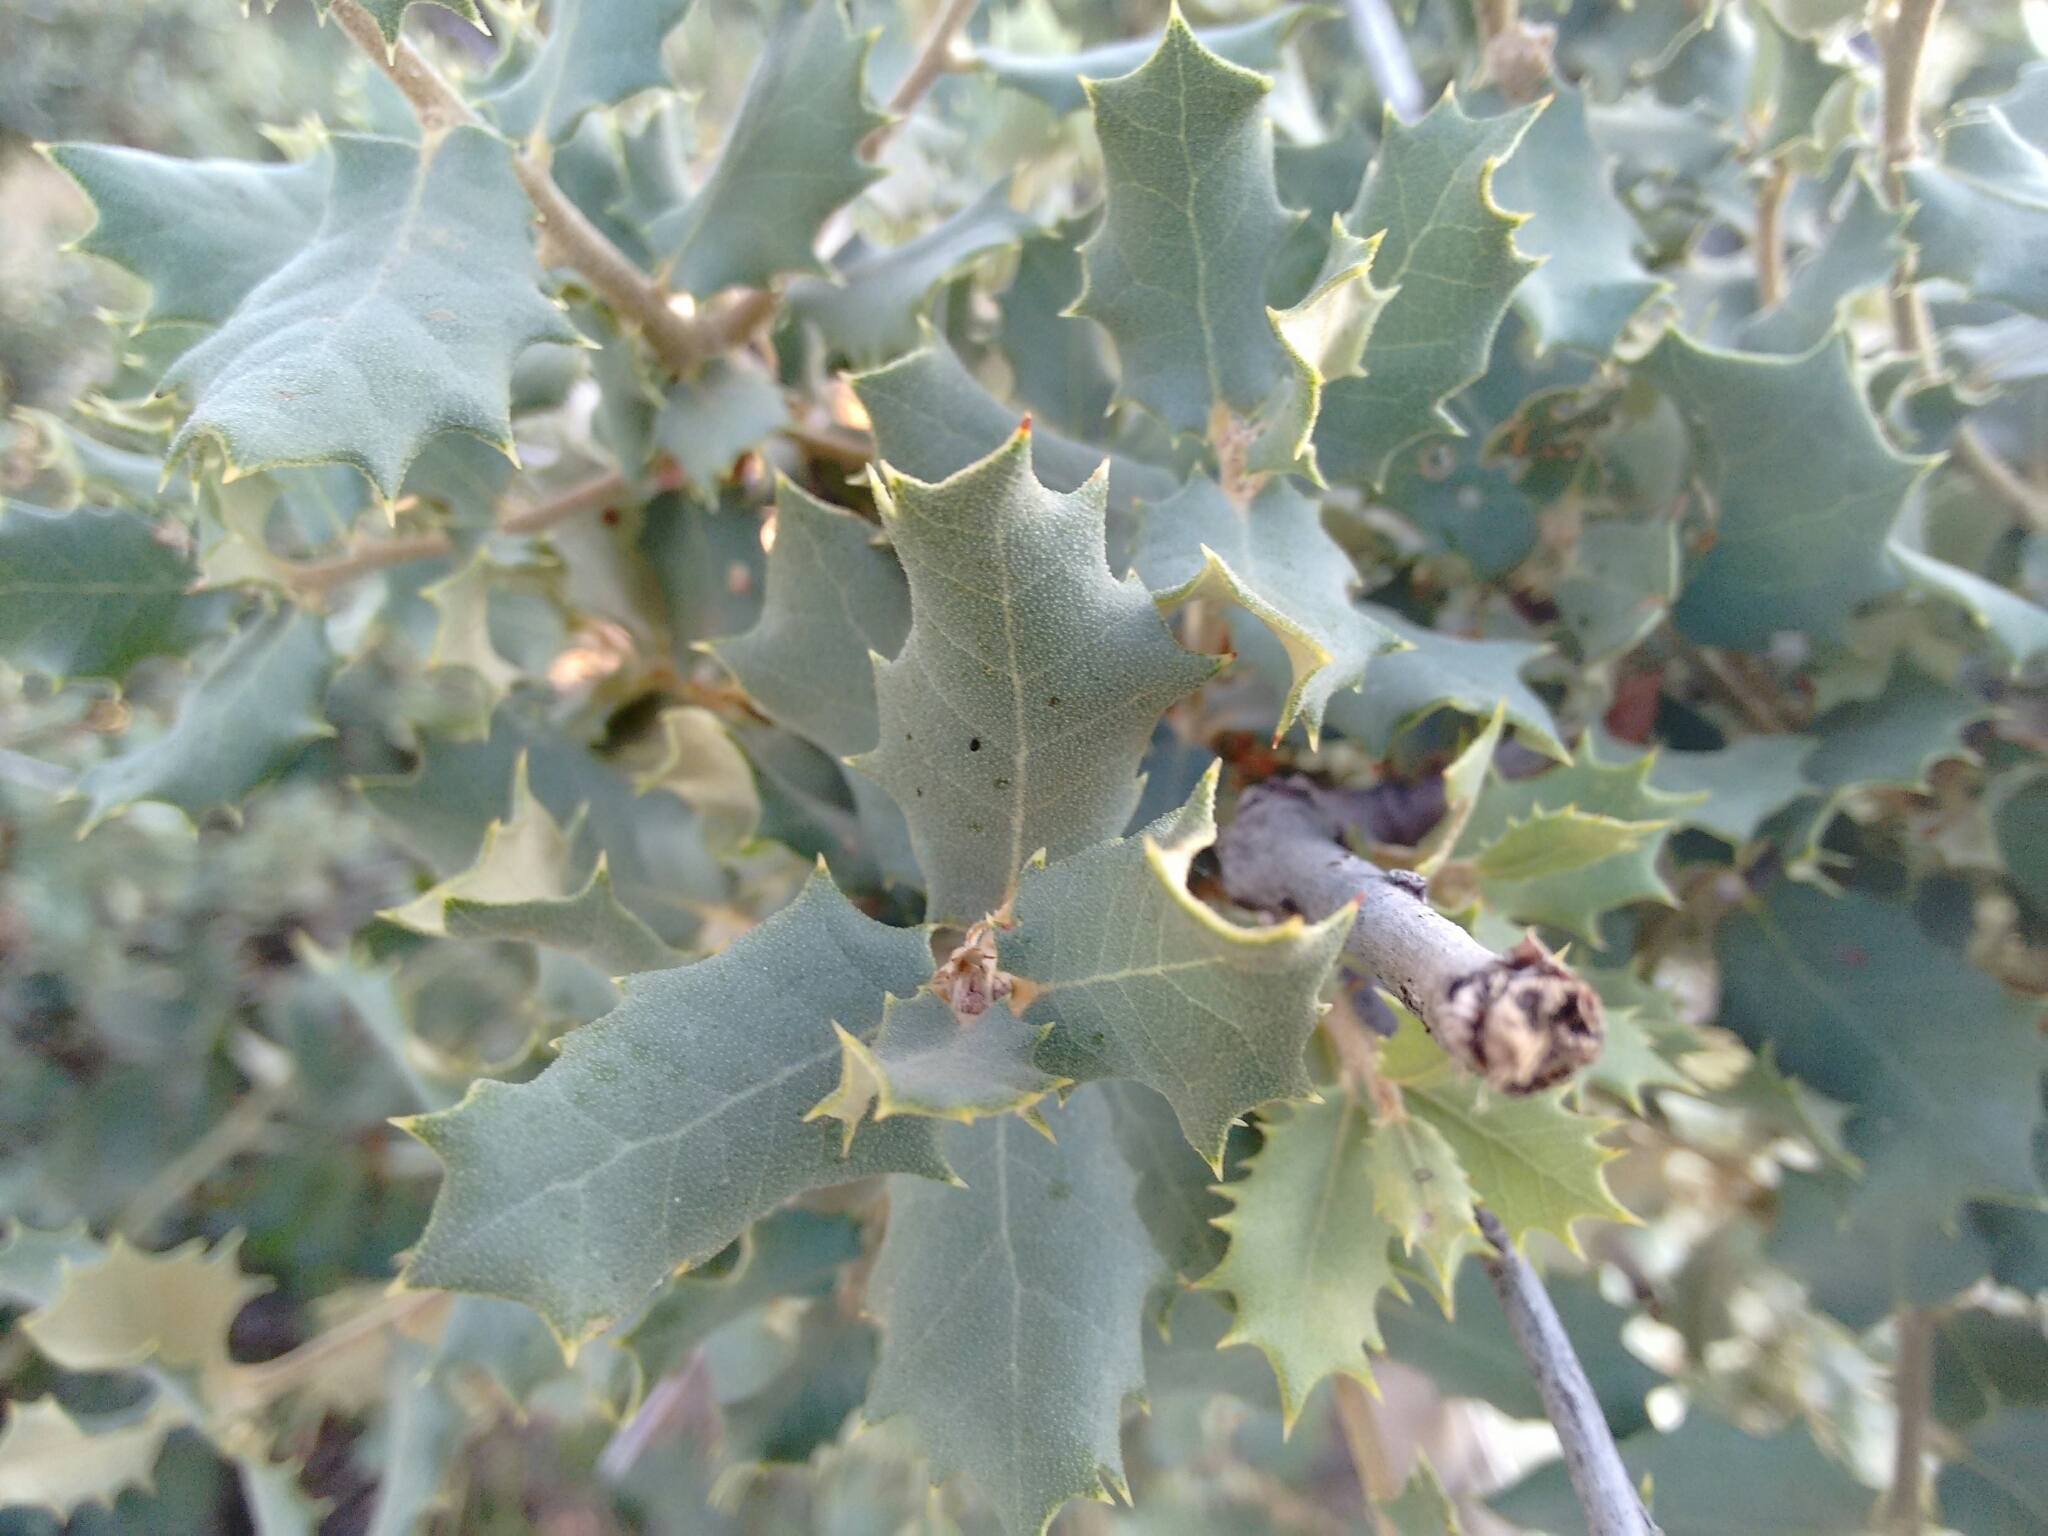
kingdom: Plantae
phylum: Tracheophyta
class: Magnoliopsida
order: Fagales
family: Fagaceae
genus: Quercus
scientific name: Quercus rotundifolia
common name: Holm oak
